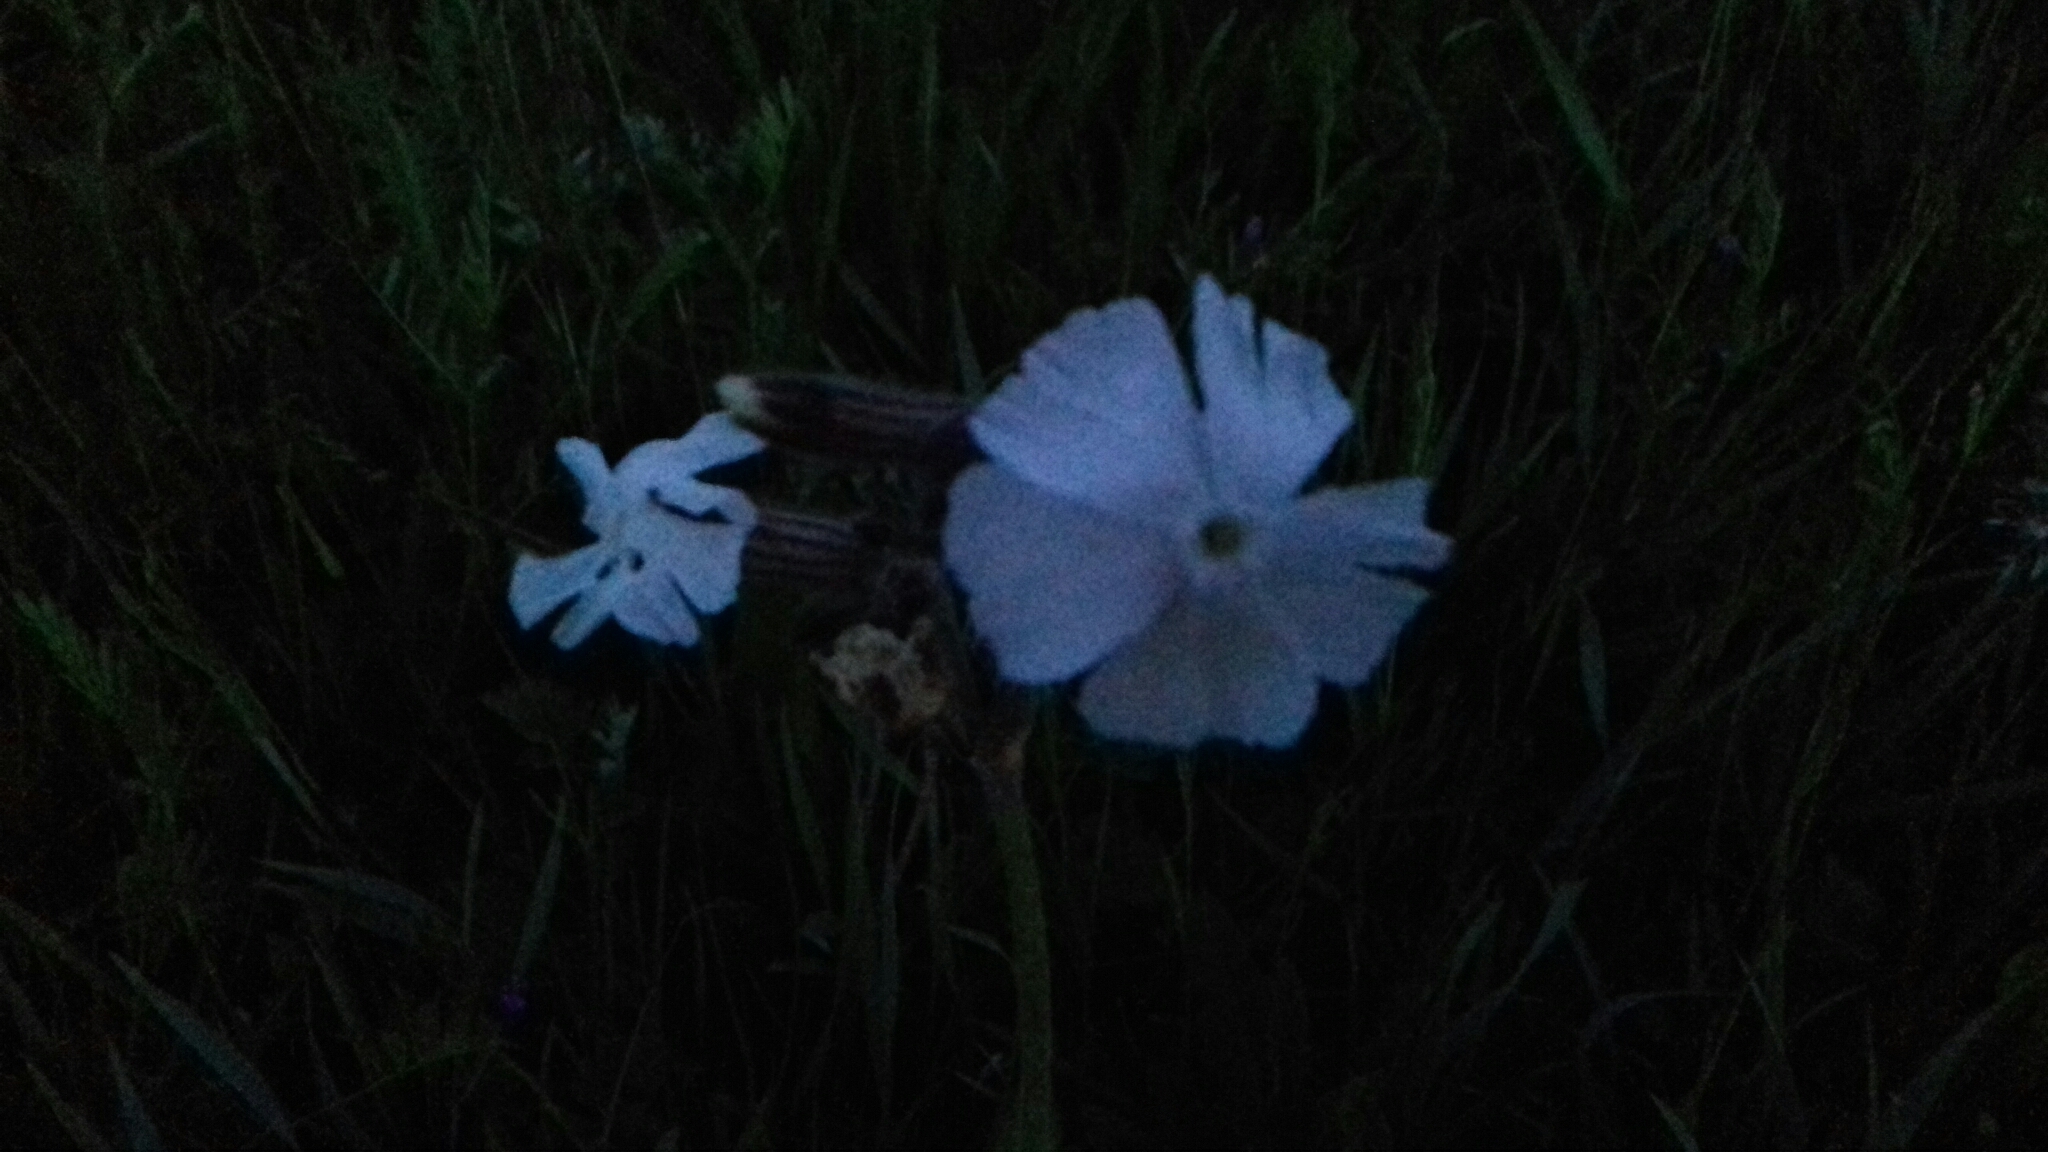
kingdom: Plantae
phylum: Tracheophyta
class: Magnoliopsida
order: Caryophyllales
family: Caryophyllaceae
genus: Silene
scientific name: Silene latifolia
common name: White campion
